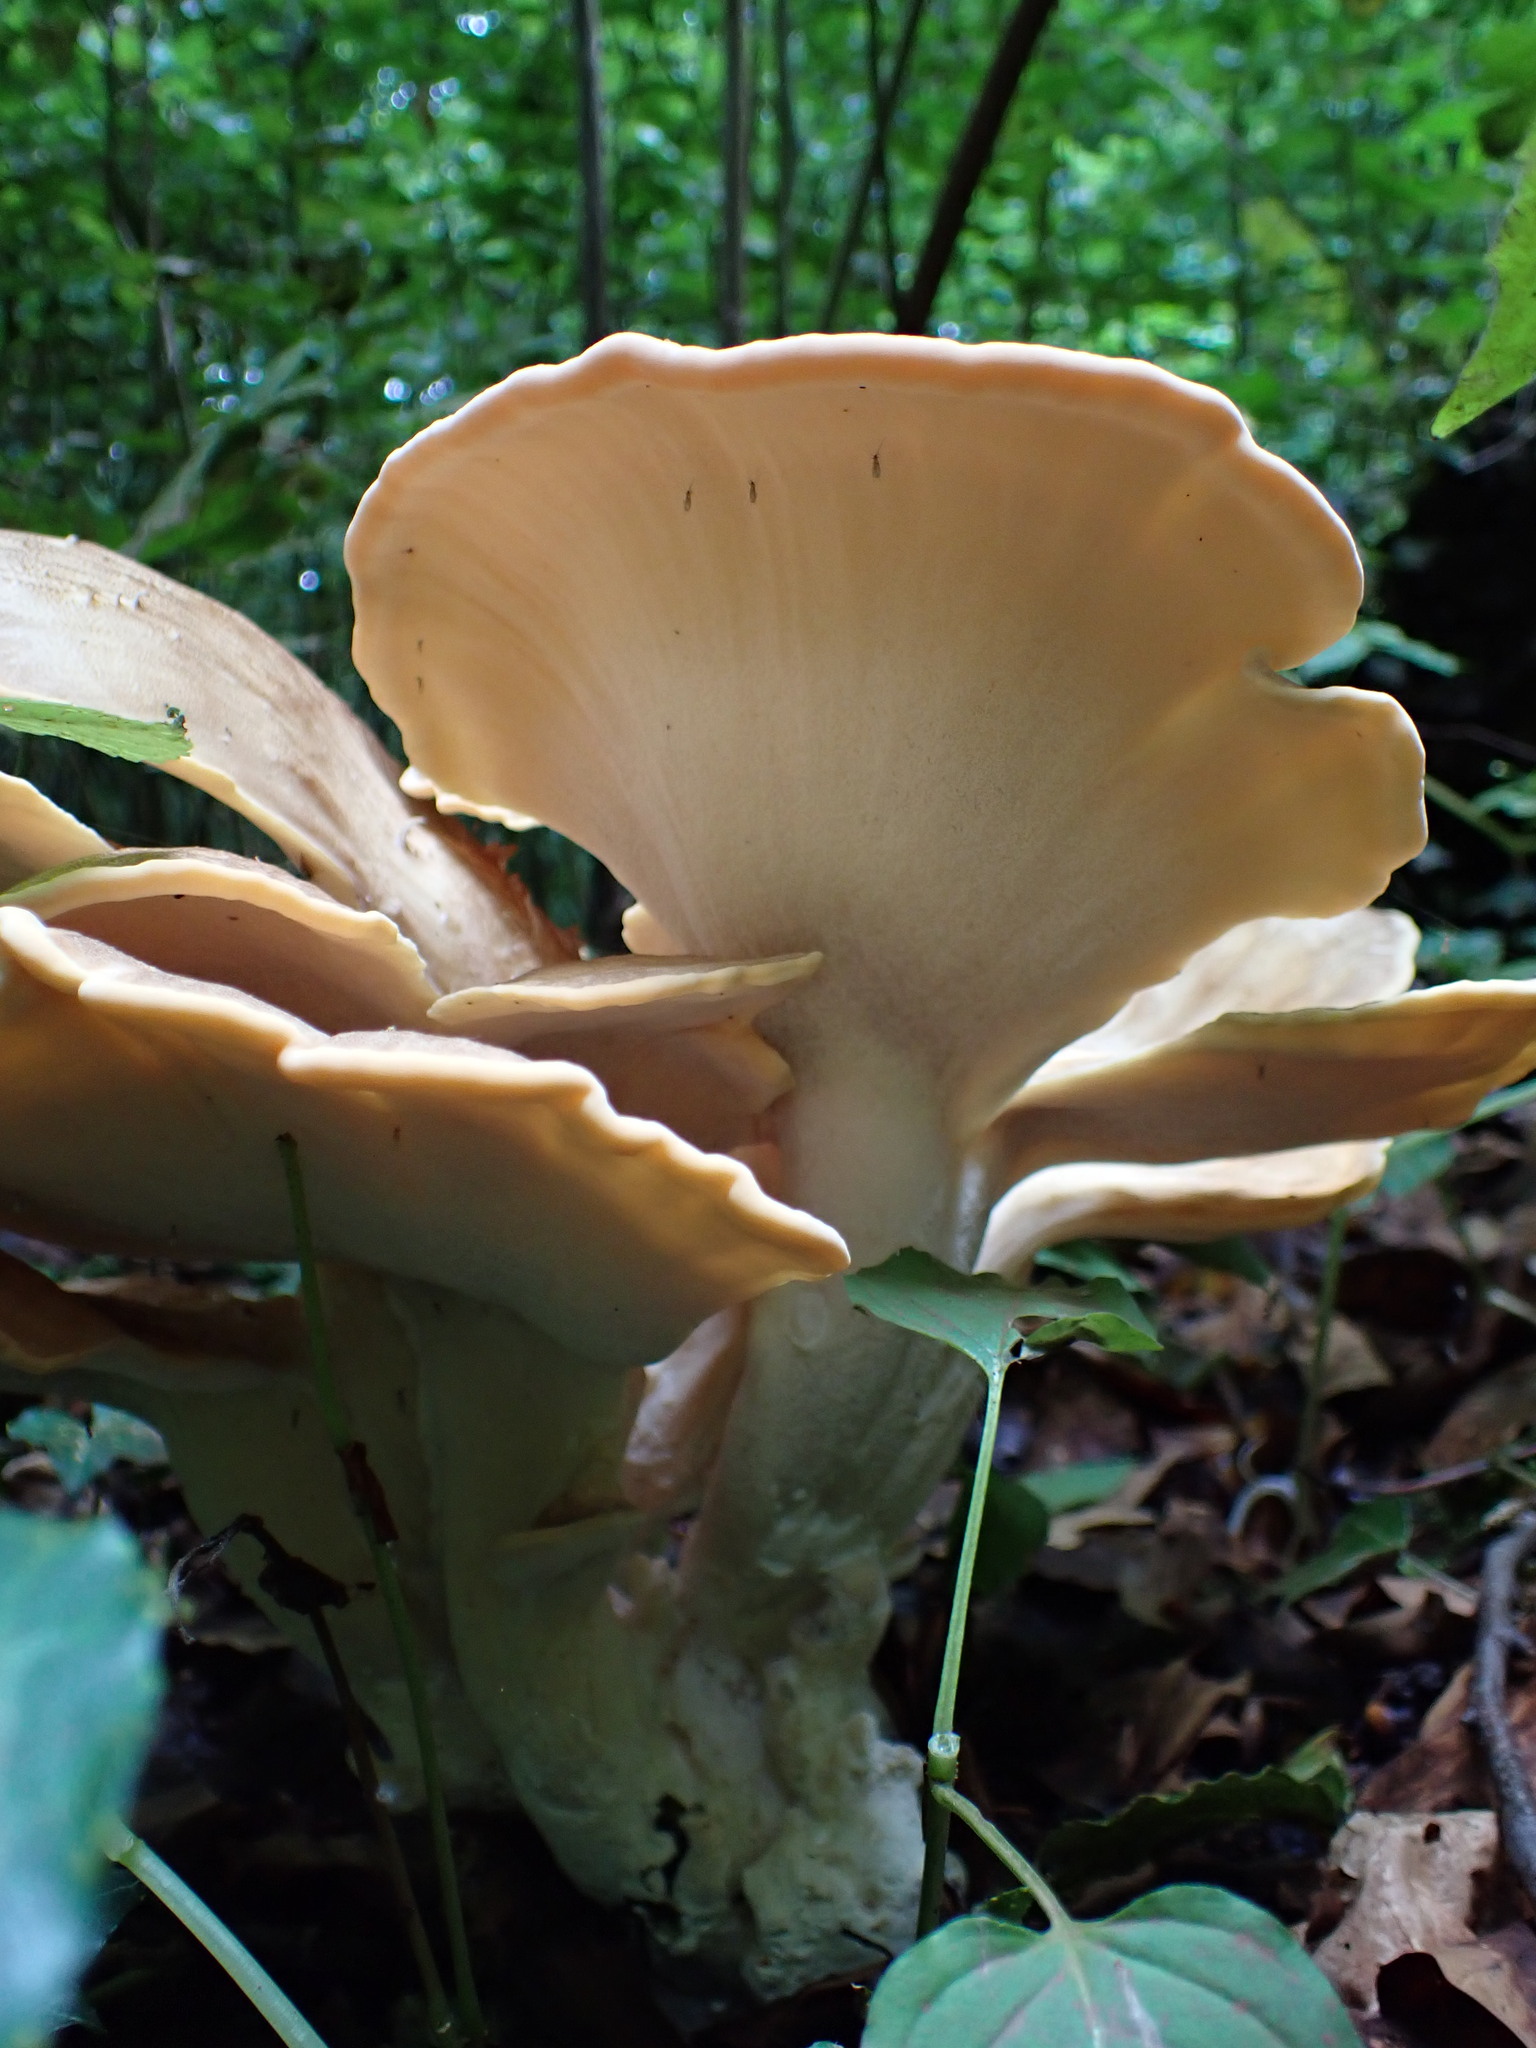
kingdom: Fungi
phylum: Basidiomycota
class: Agaricomycetes
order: Polyporales
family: Meripilaceae
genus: Meripilus
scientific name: Meripilus giganteus
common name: Giant polypore
